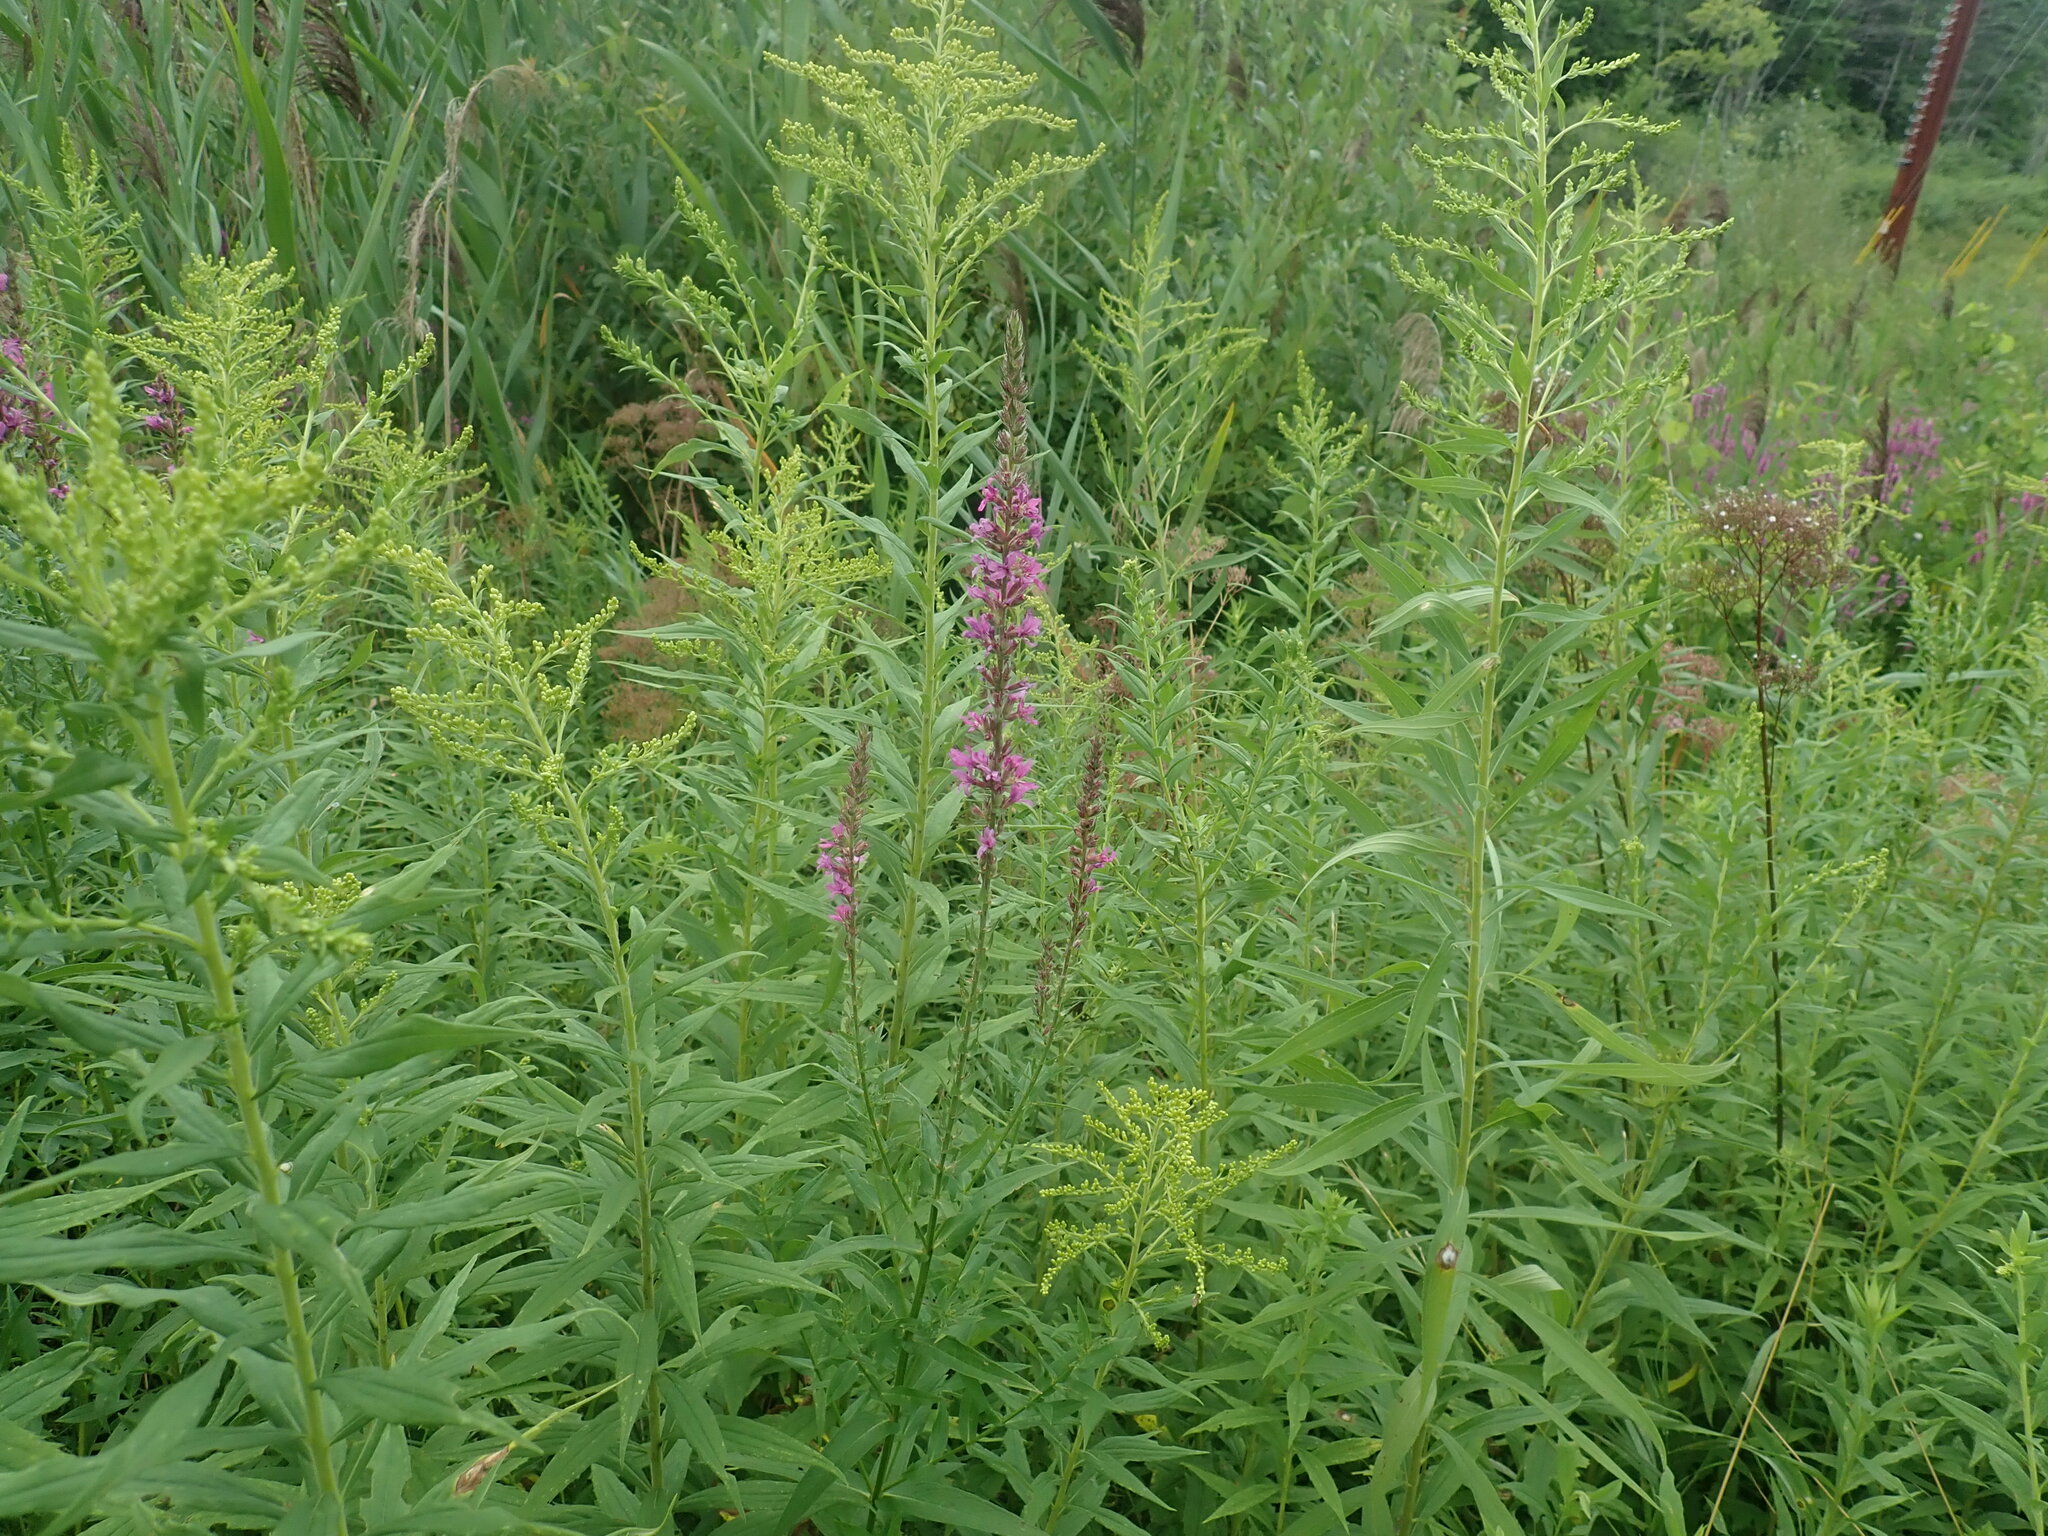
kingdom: Plantae
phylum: Tracheophyta
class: Magnoliopsida
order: Myrtales
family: Lythraceae
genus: Lythrum
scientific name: Lythrum salicaria
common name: Purple loosestrife
